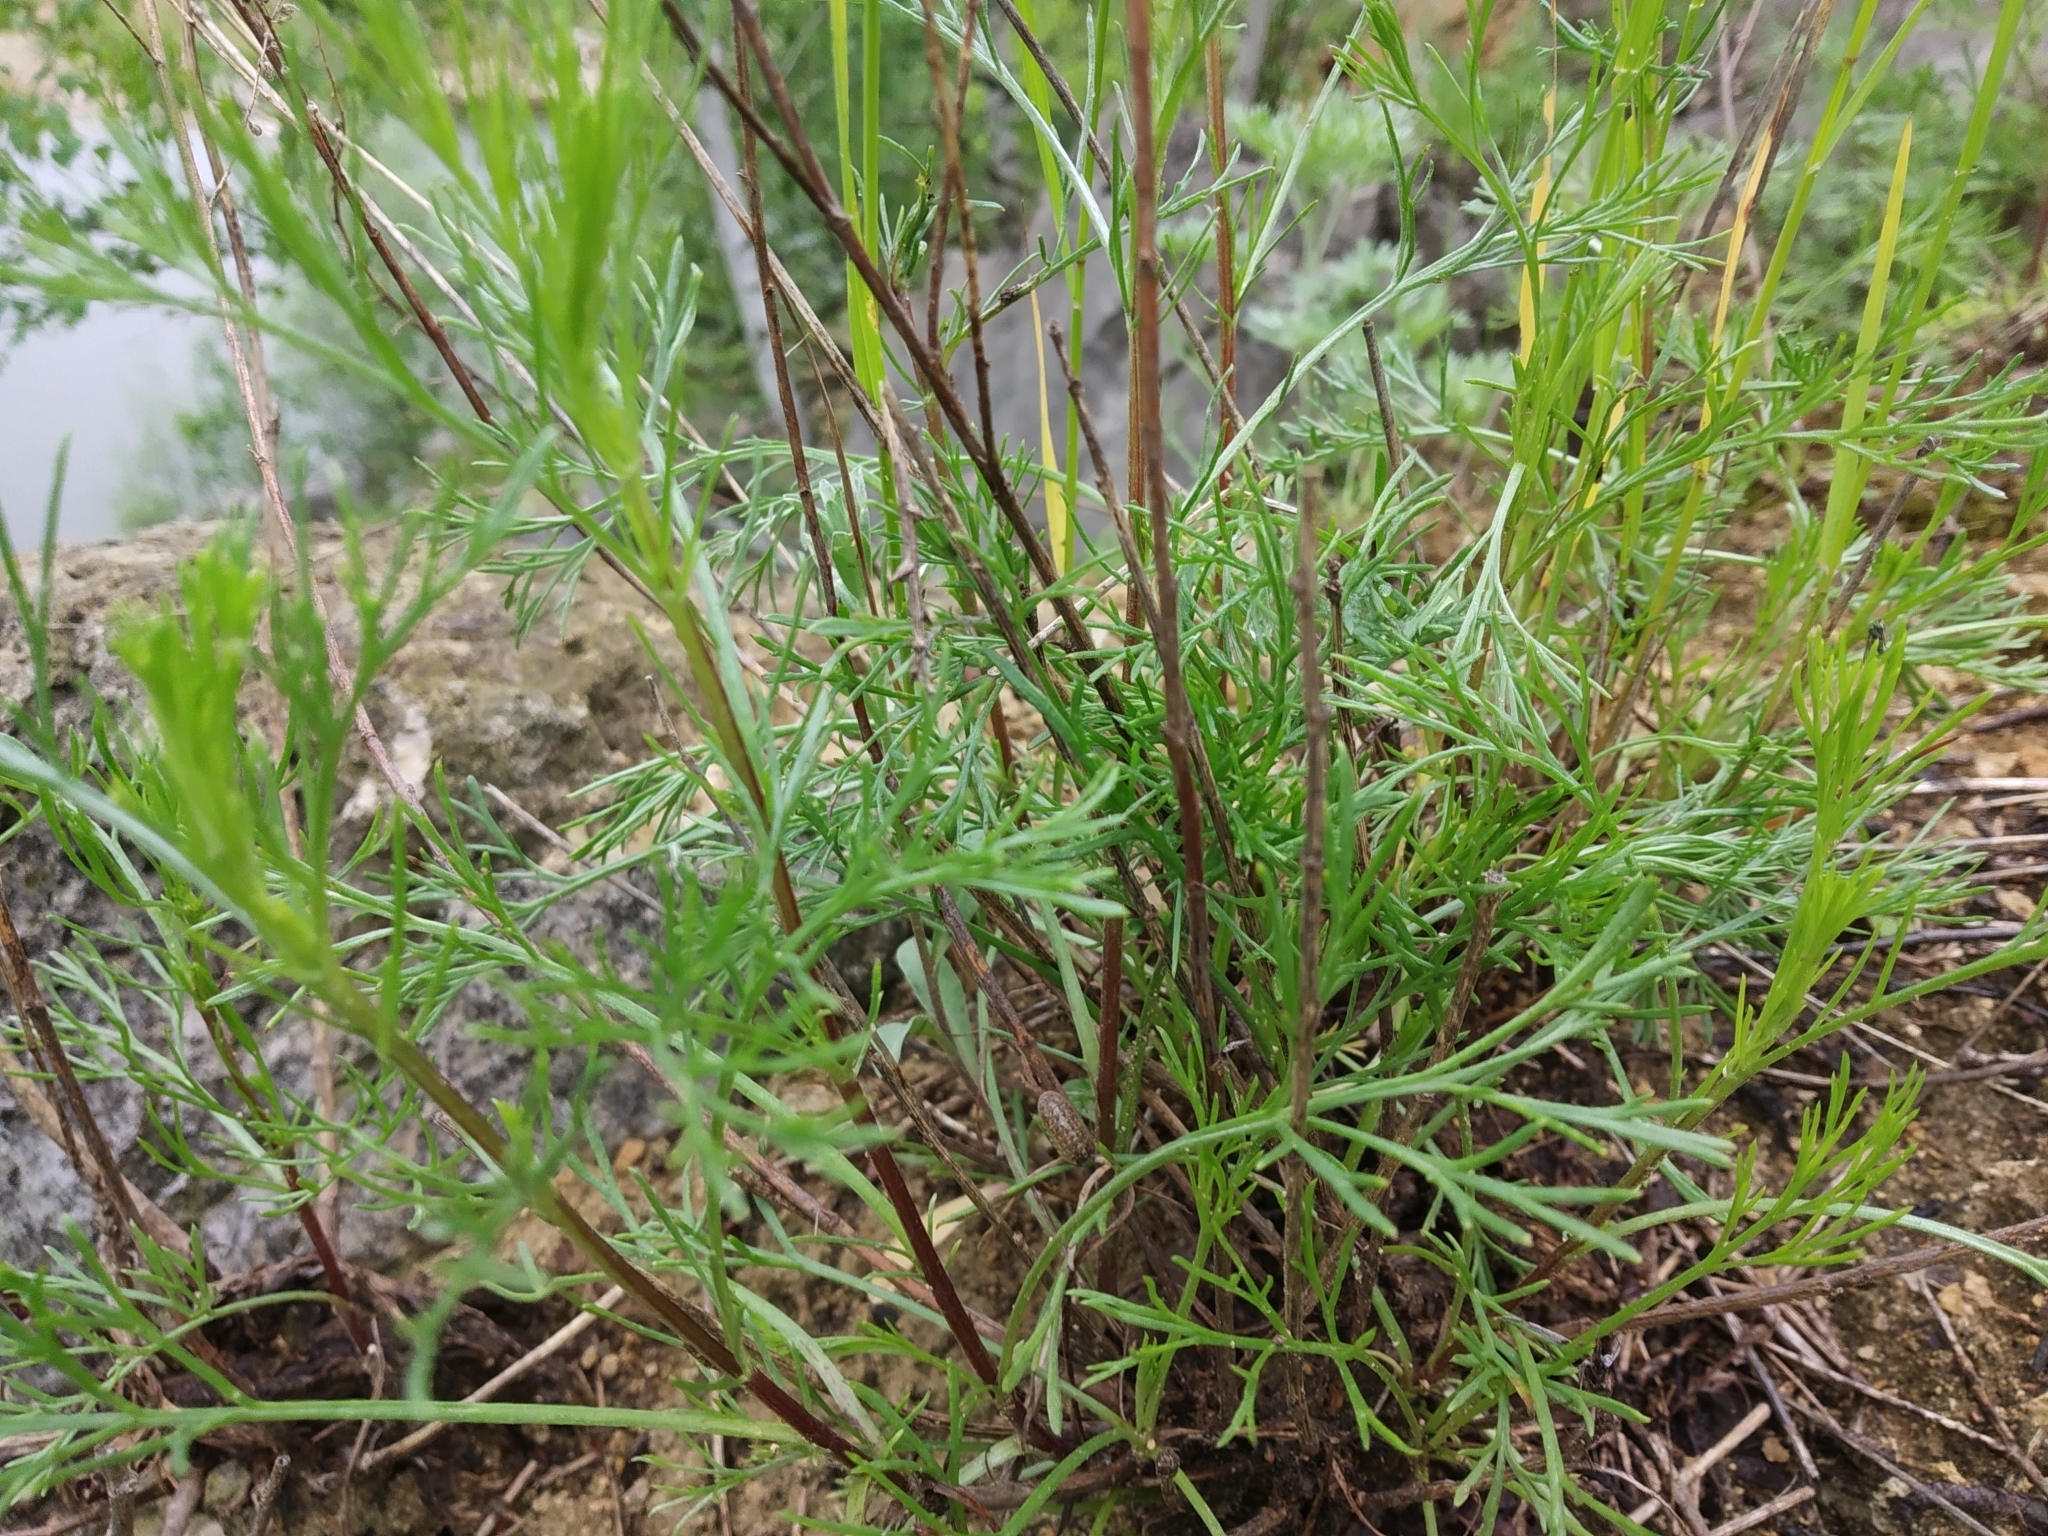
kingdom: Plantae
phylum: Tracheophyta
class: Magnoliopsida
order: Asterales
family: Asteraceae
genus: Artemisia
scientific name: Artemisia campestris
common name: Field wormwood
